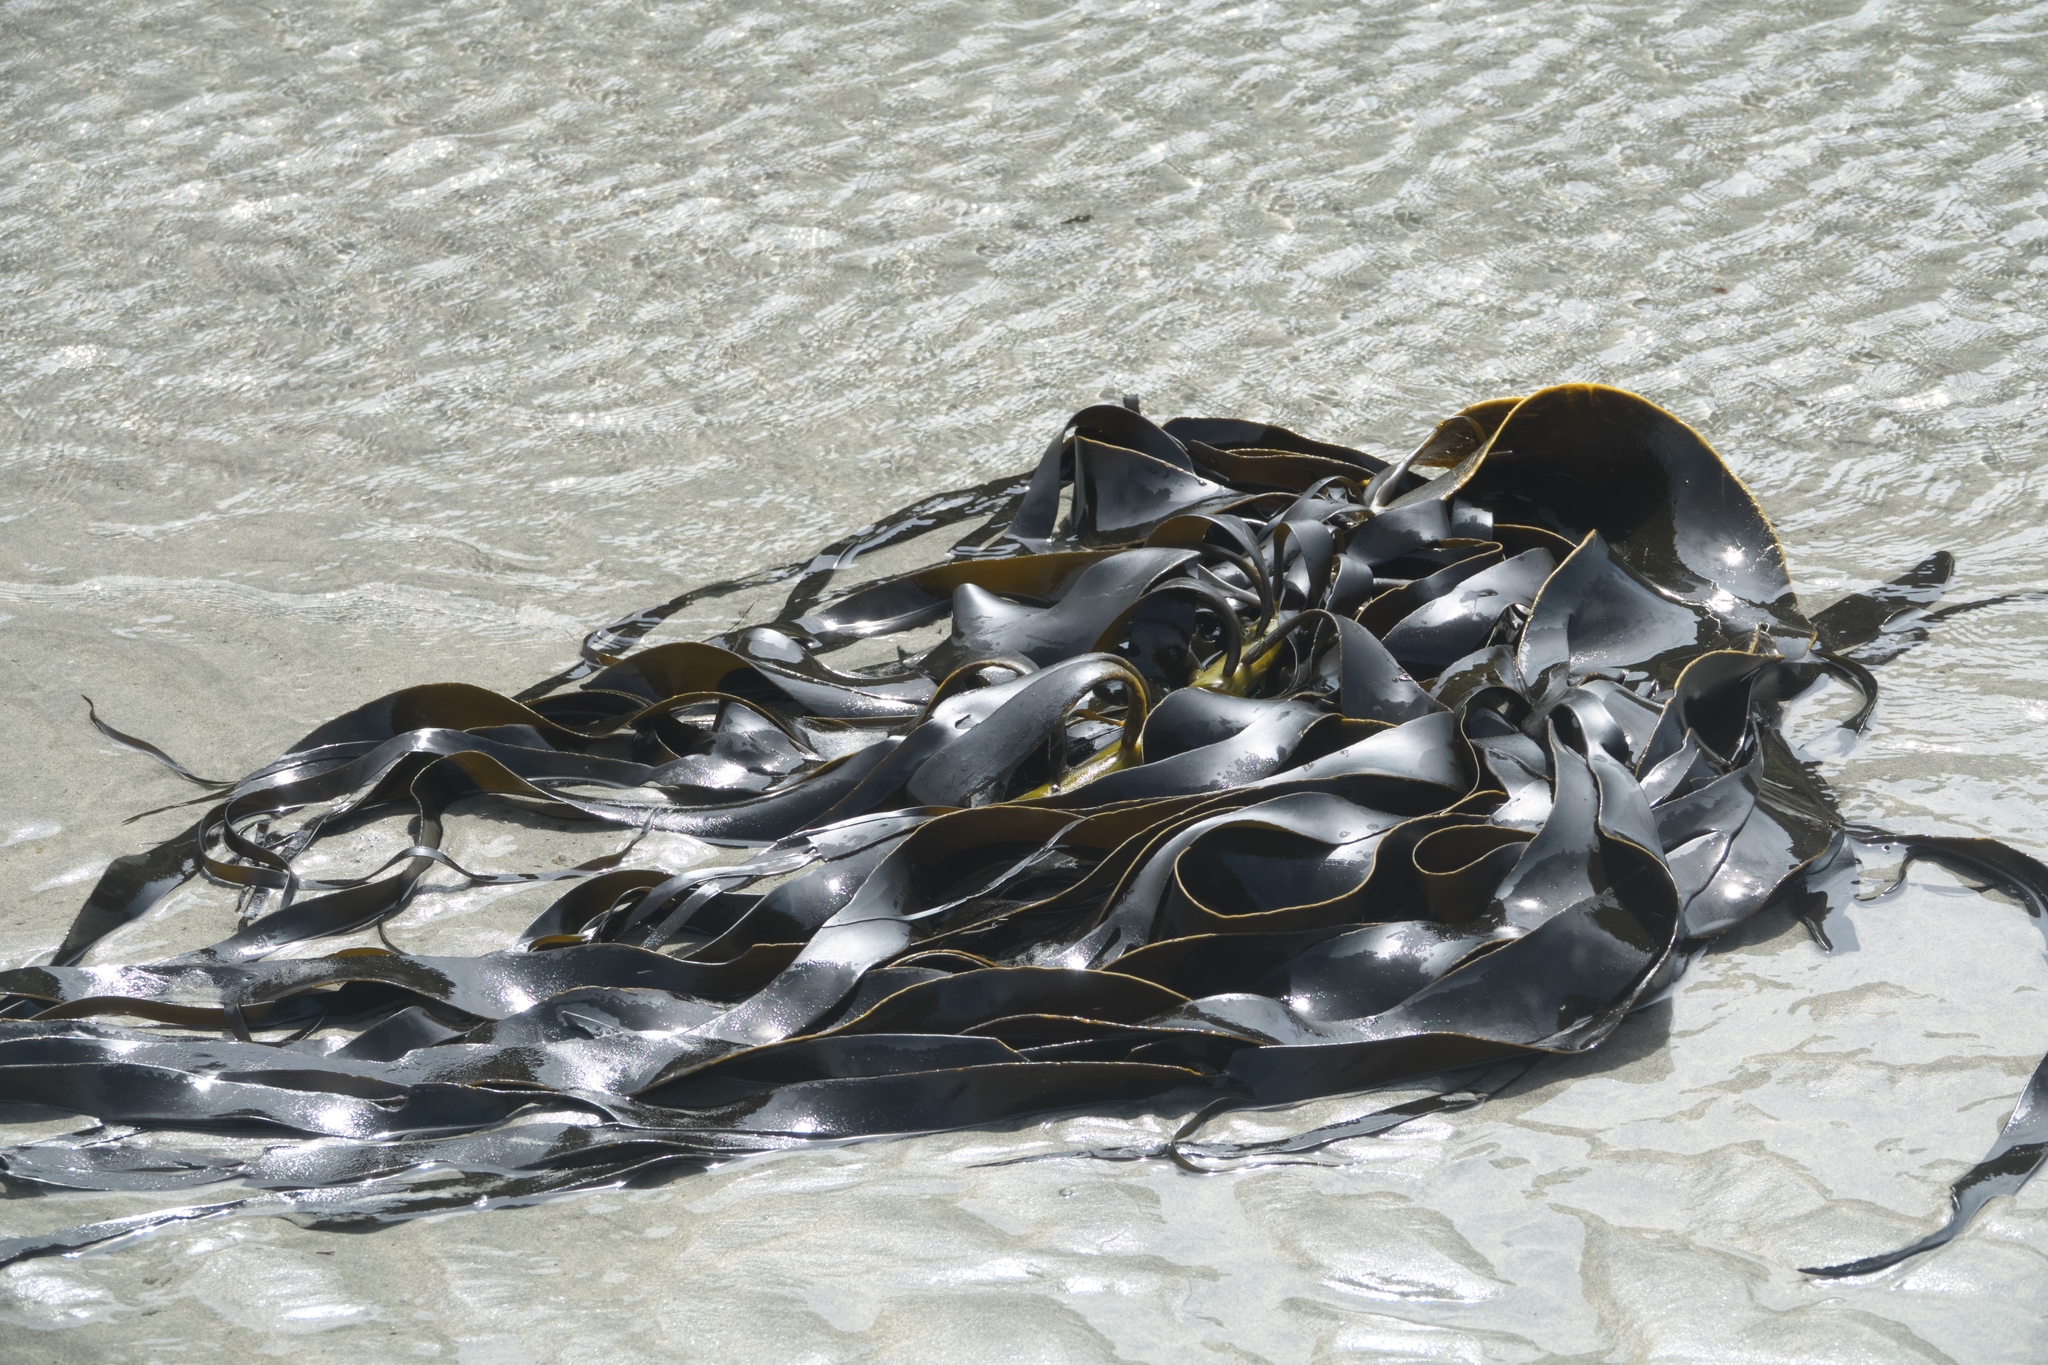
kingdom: Chromista
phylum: Ochrophyta
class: Phaeophyceae
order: Fucales
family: Durvillaeaceae
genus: Durvillaea
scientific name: Durvillaea willana
